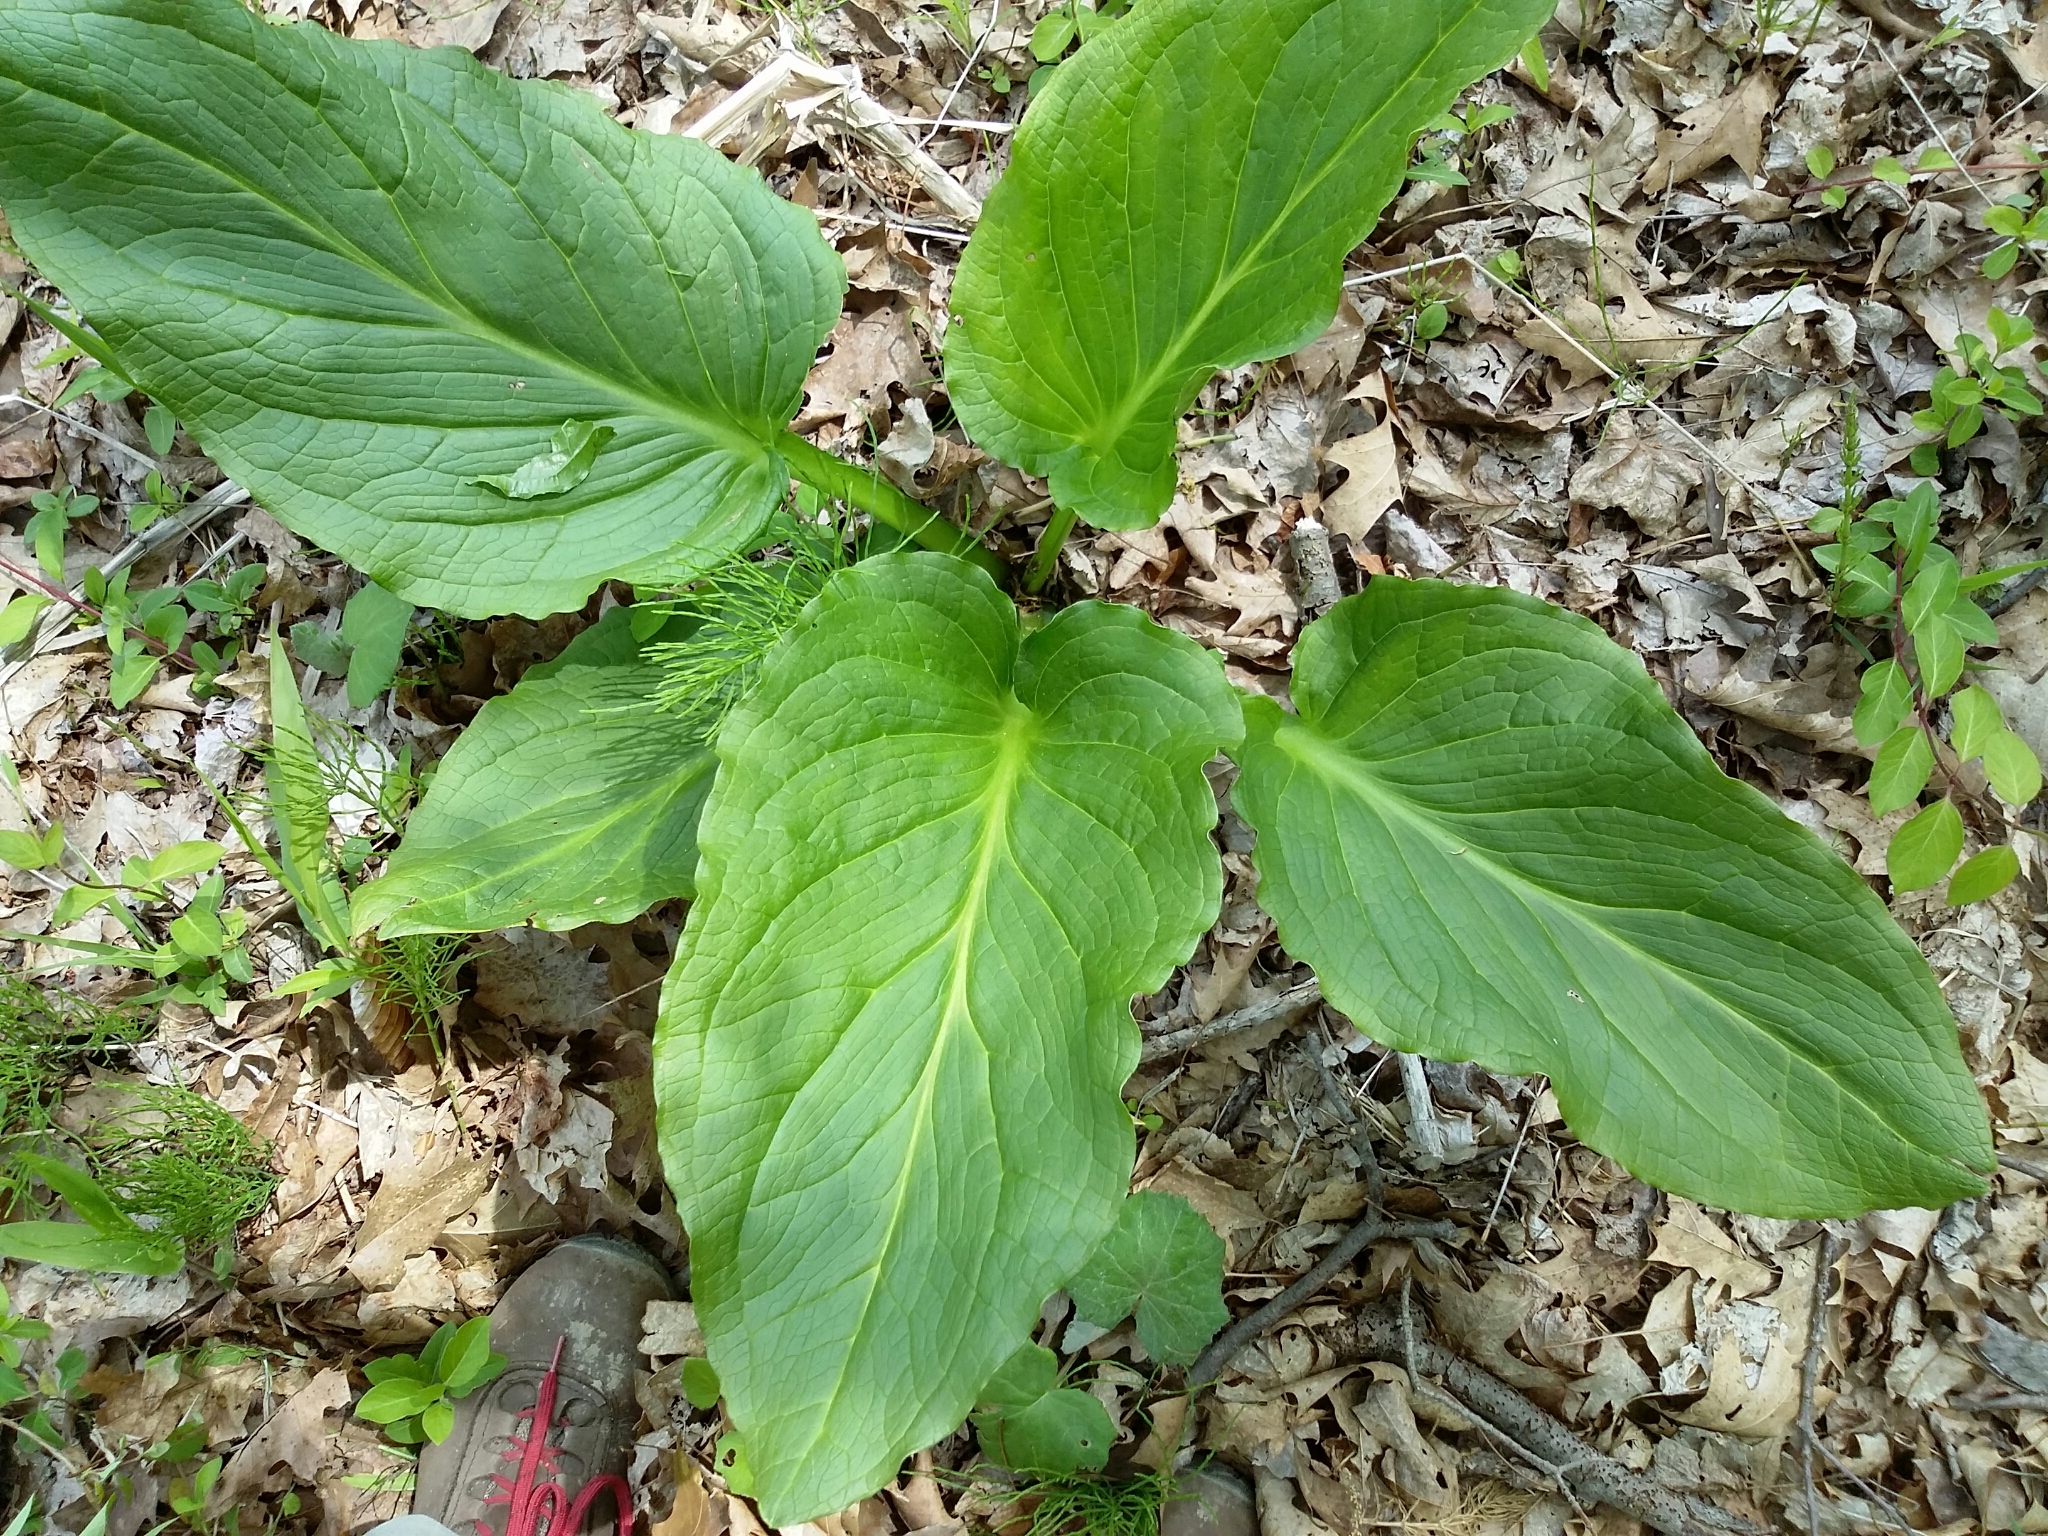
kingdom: Plantae
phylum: Tracheophyta
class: Liliopsida
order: Alismatales
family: Araceae
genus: Symplocarpus
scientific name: Symplocarpus foetidus
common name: Eastern skunk cabbage
